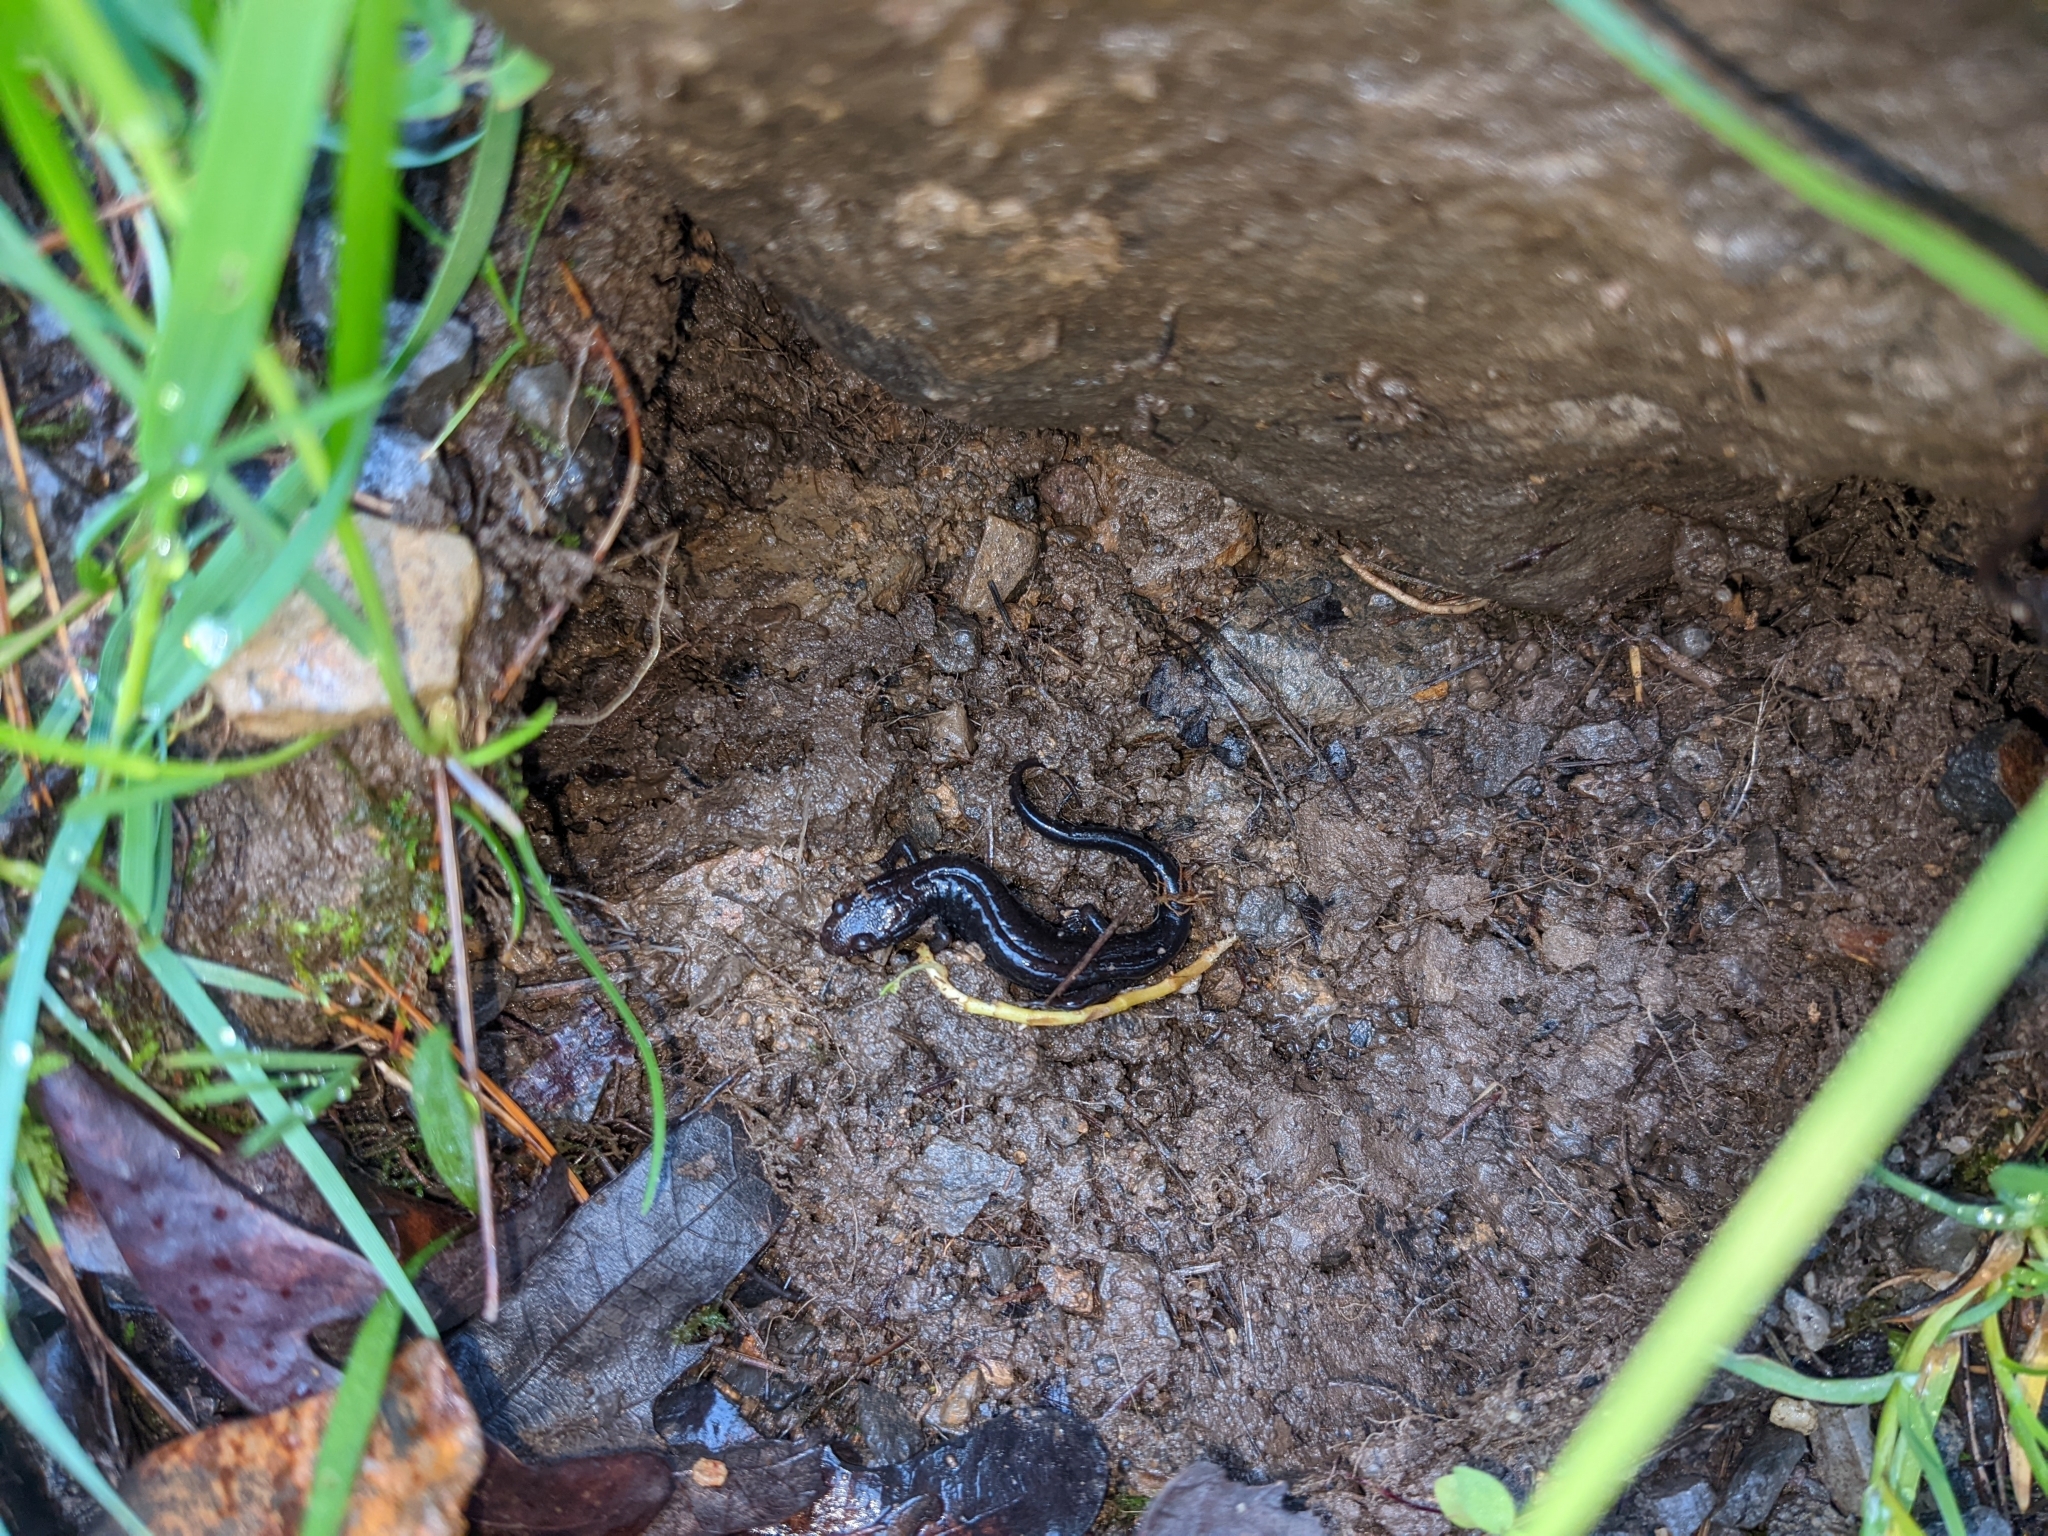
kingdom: Animalia
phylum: Chordata
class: Amphibia
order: Caudata
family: Plethodontidae
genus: Desmognathus
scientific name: Desmognathus ochrophaeus
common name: Allegheny mountain dusky salamander
